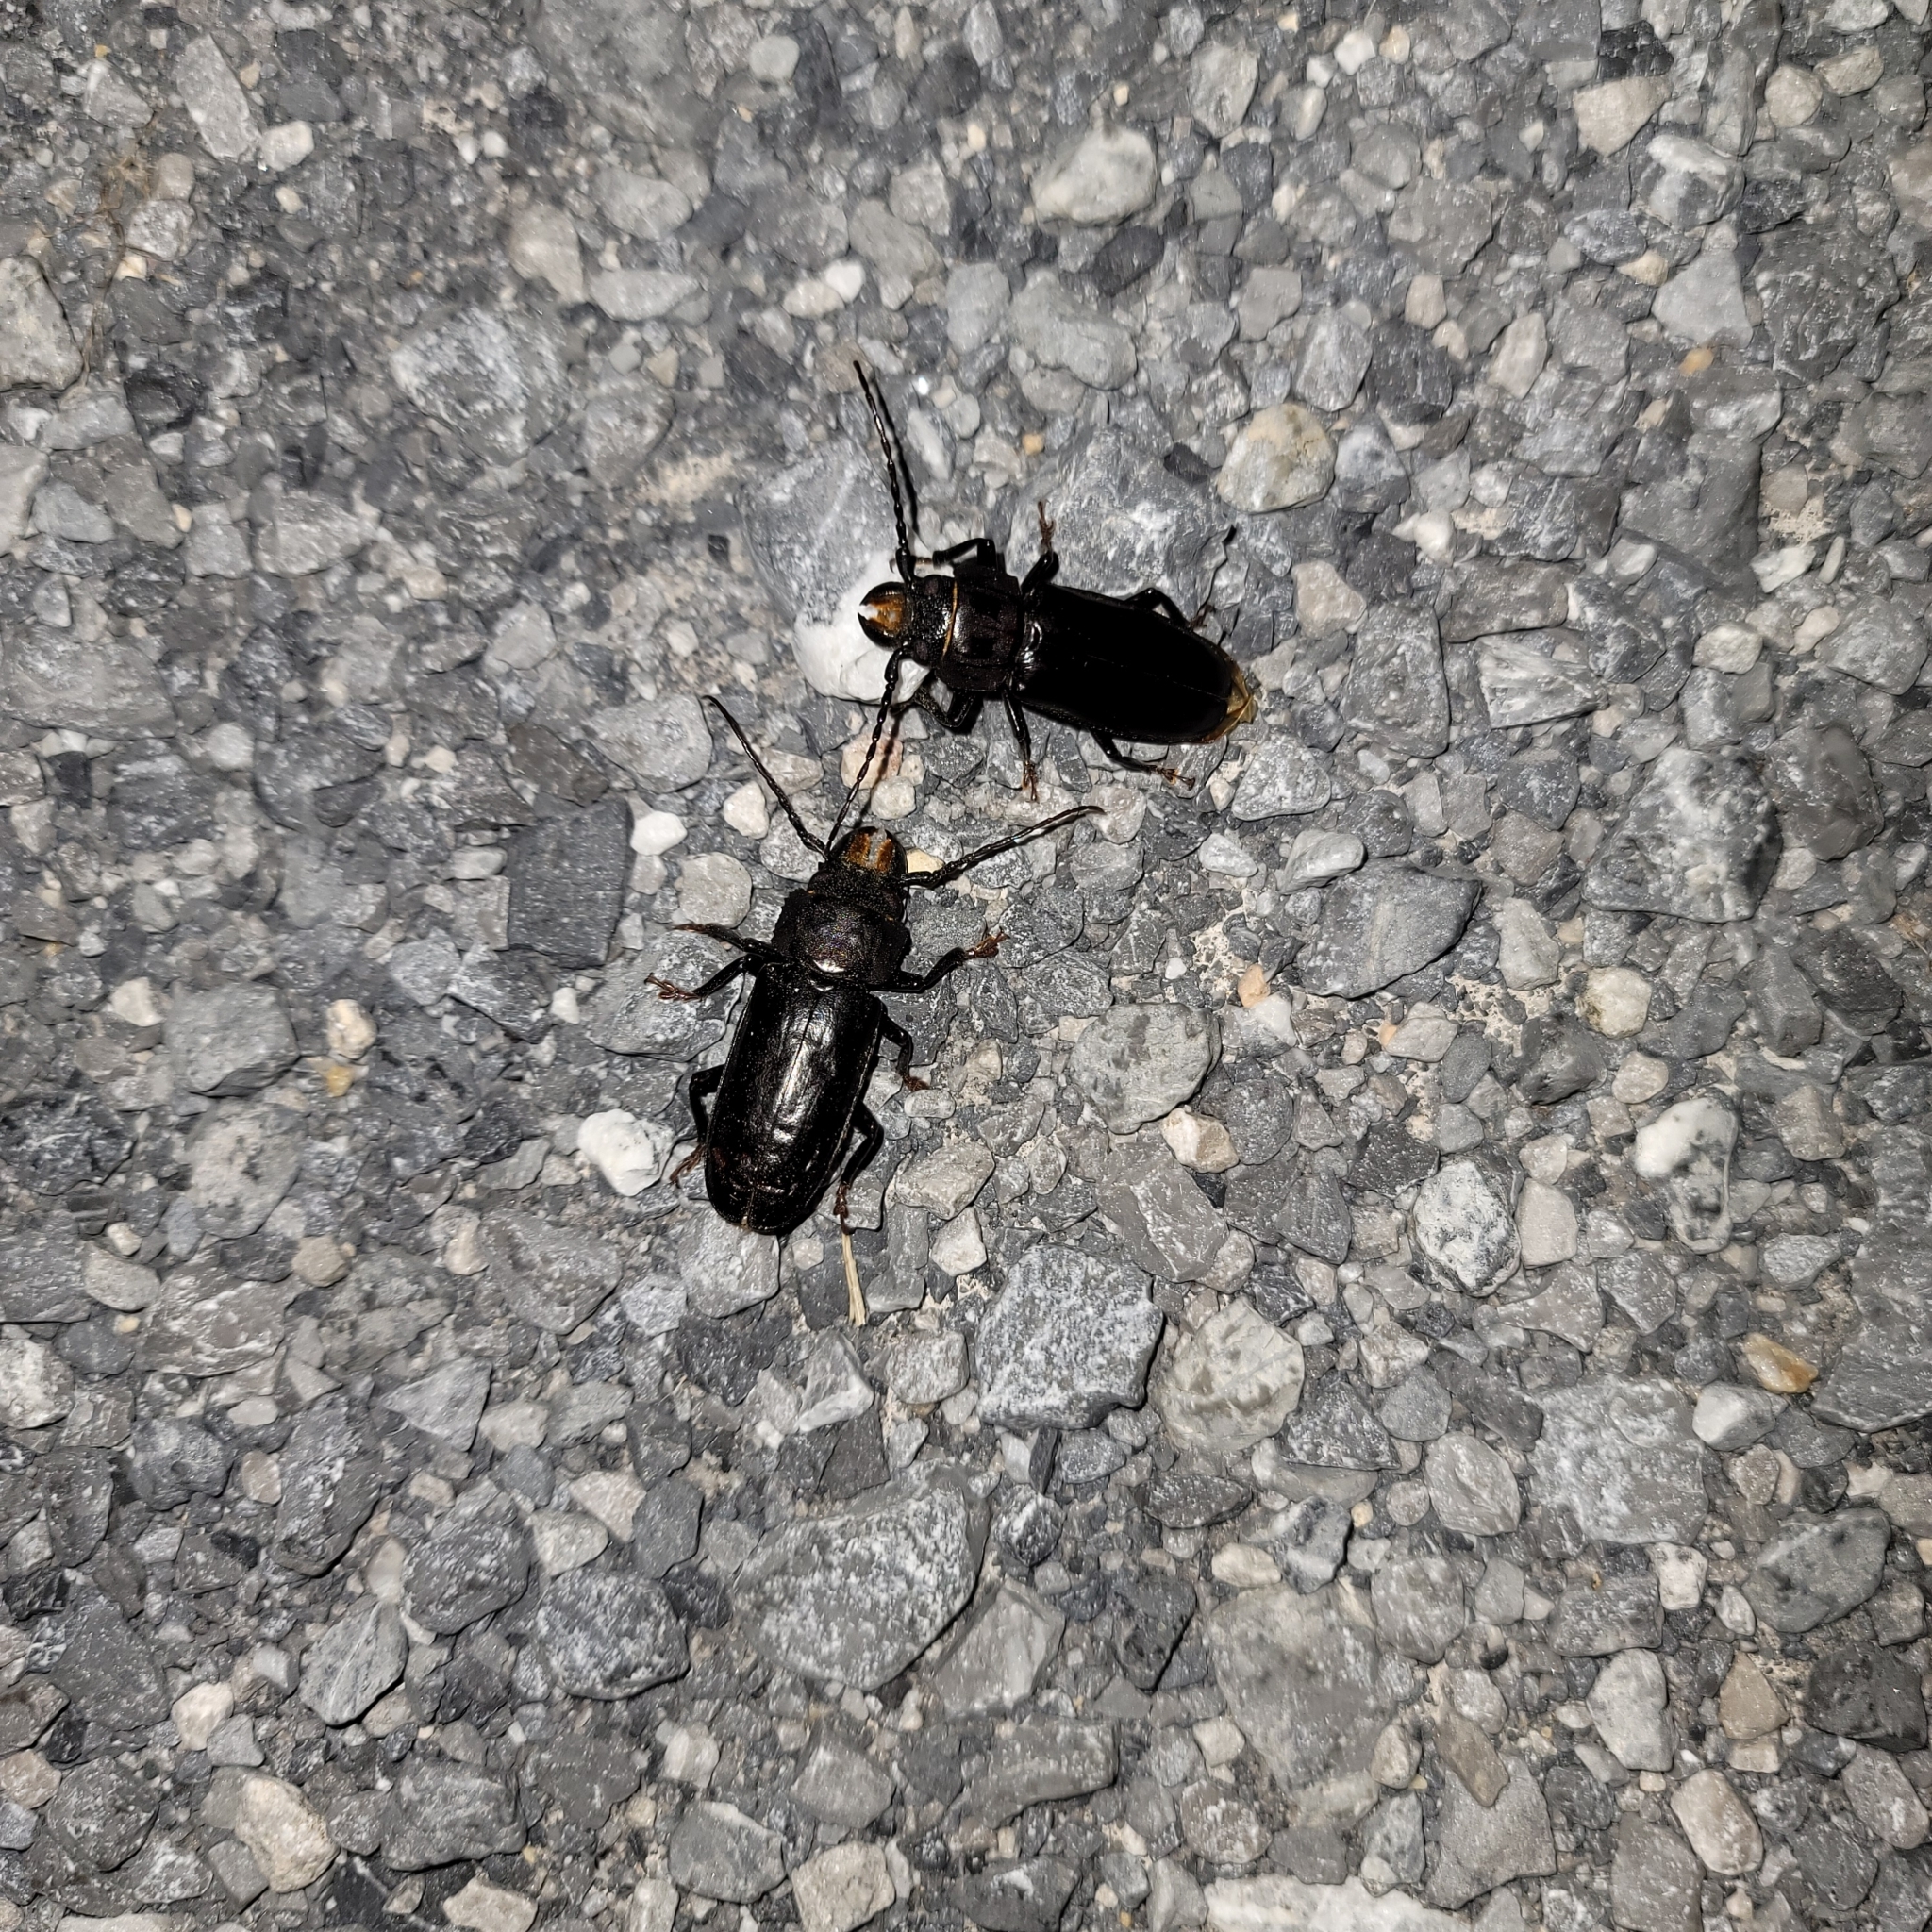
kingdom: Animalia
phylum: Arthropoda
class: Insecta
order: Coleoptera
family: Cerambycidae
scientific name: Cerambycidae
